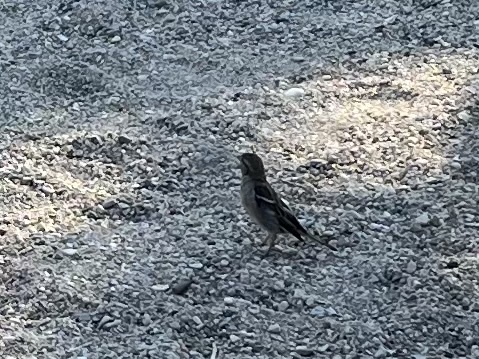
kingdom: Animalia
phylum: Chordata
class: Aves
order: Passeriformes
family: Passeridae
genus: Passer
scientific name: Passer domesticus
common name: House sparrow
